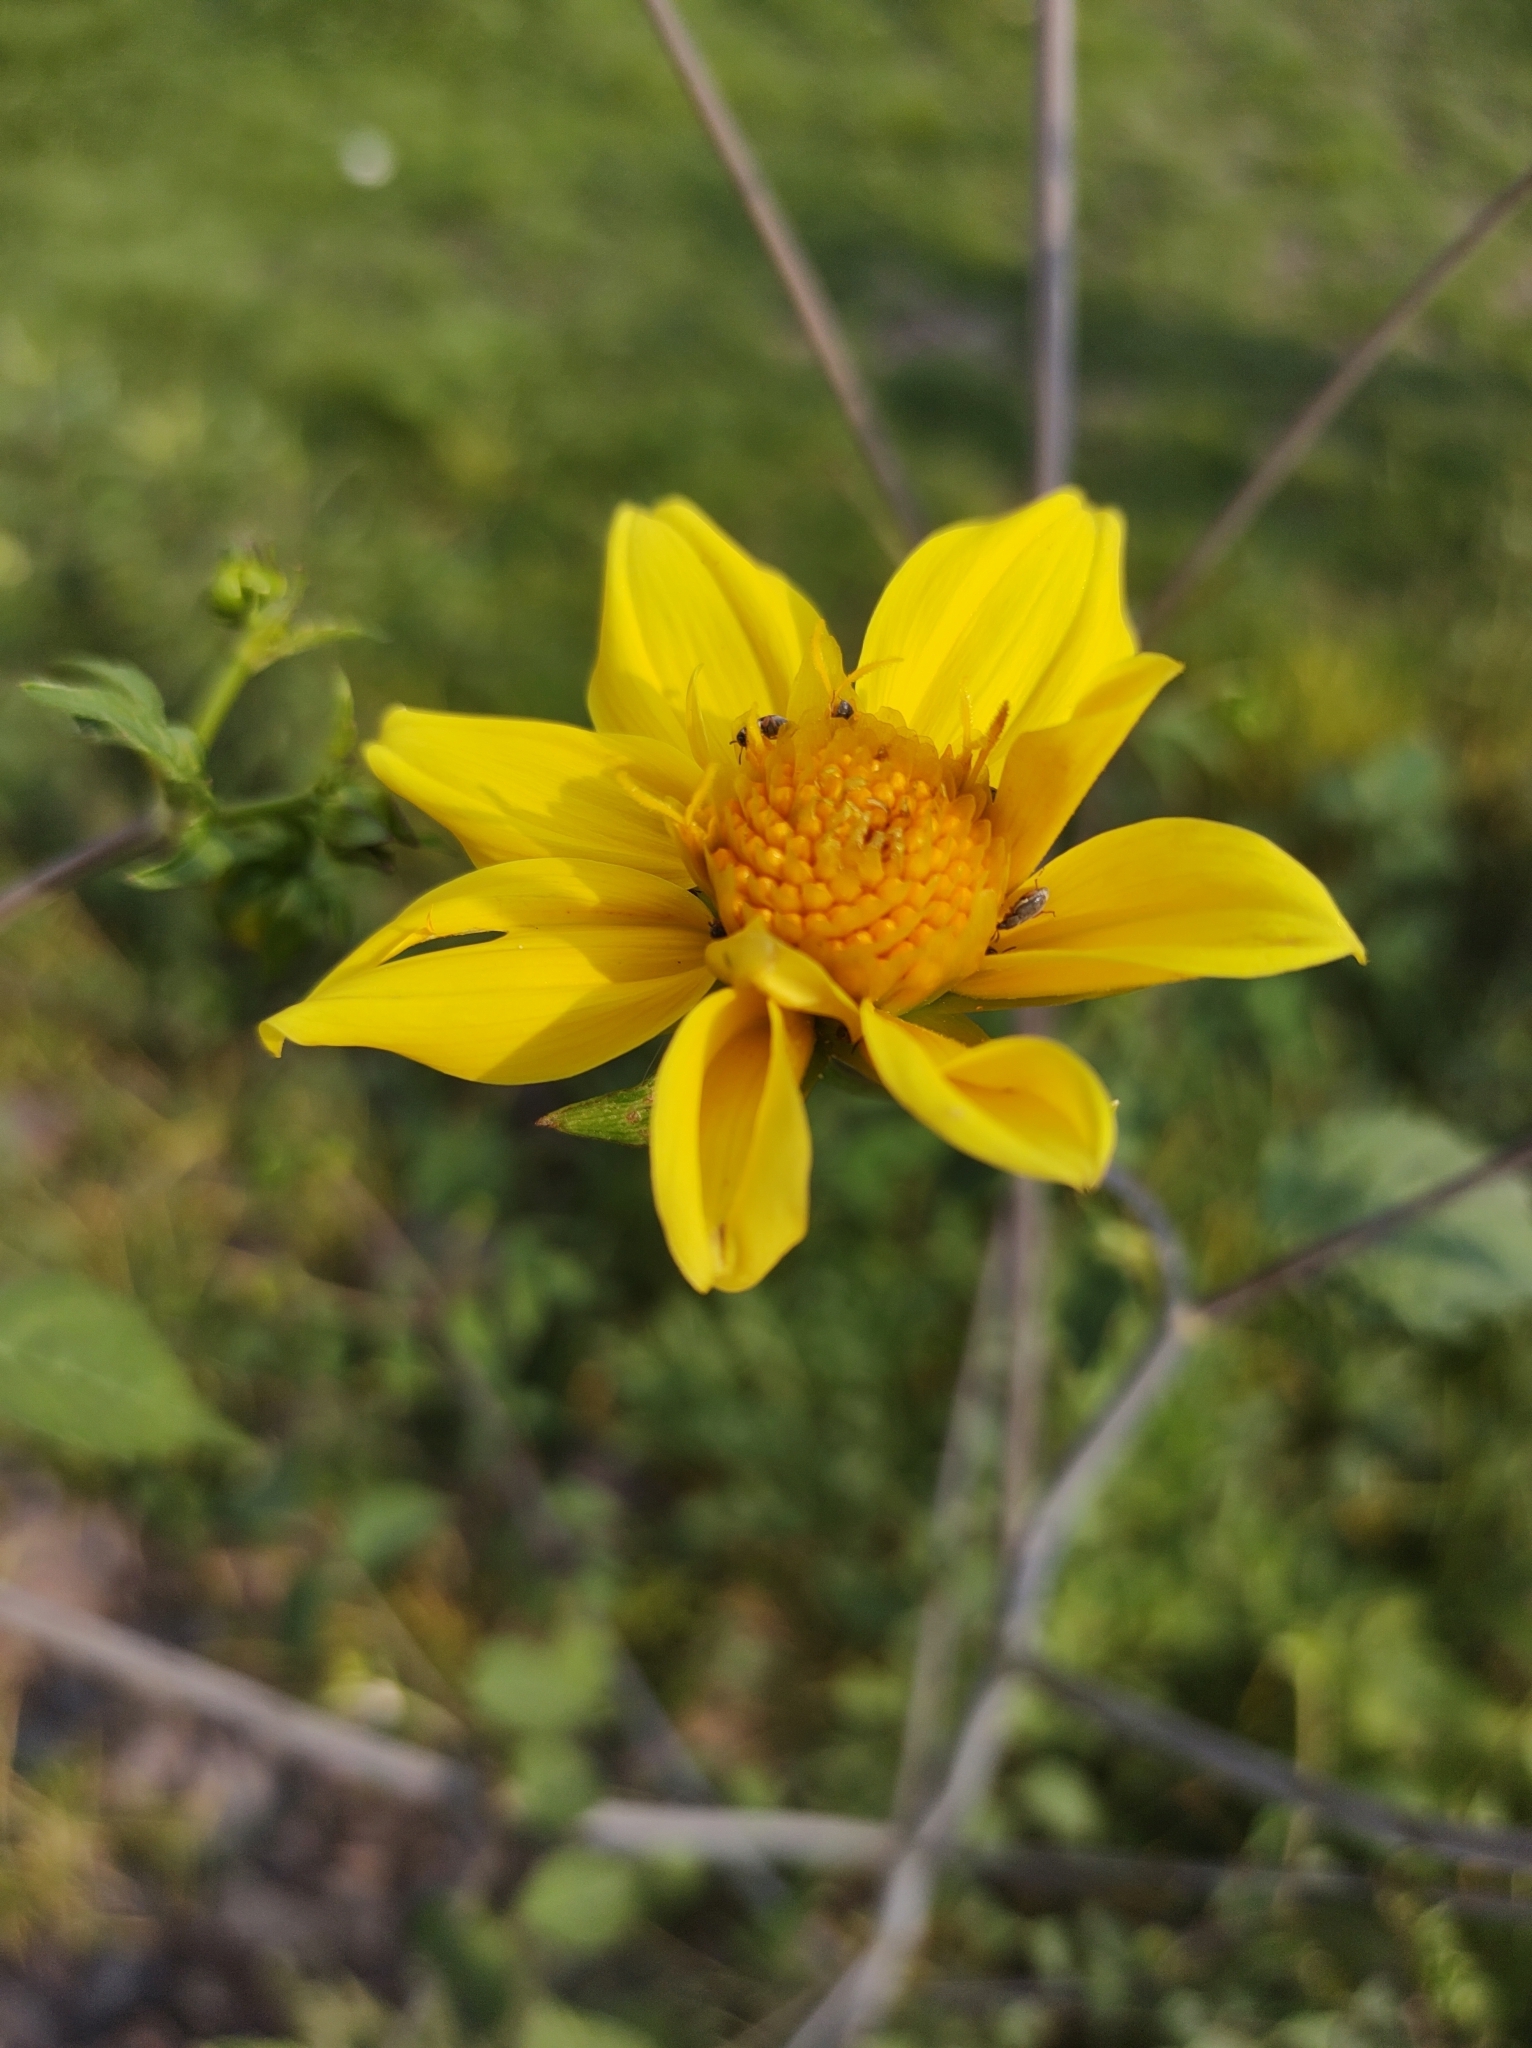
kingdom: Plantae
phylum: Tracheophyta
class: Magnoliopsida
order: Asterales
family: Asteraceae
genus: Dahlia
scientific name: Dahlia coccinea
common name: Red dahlia
